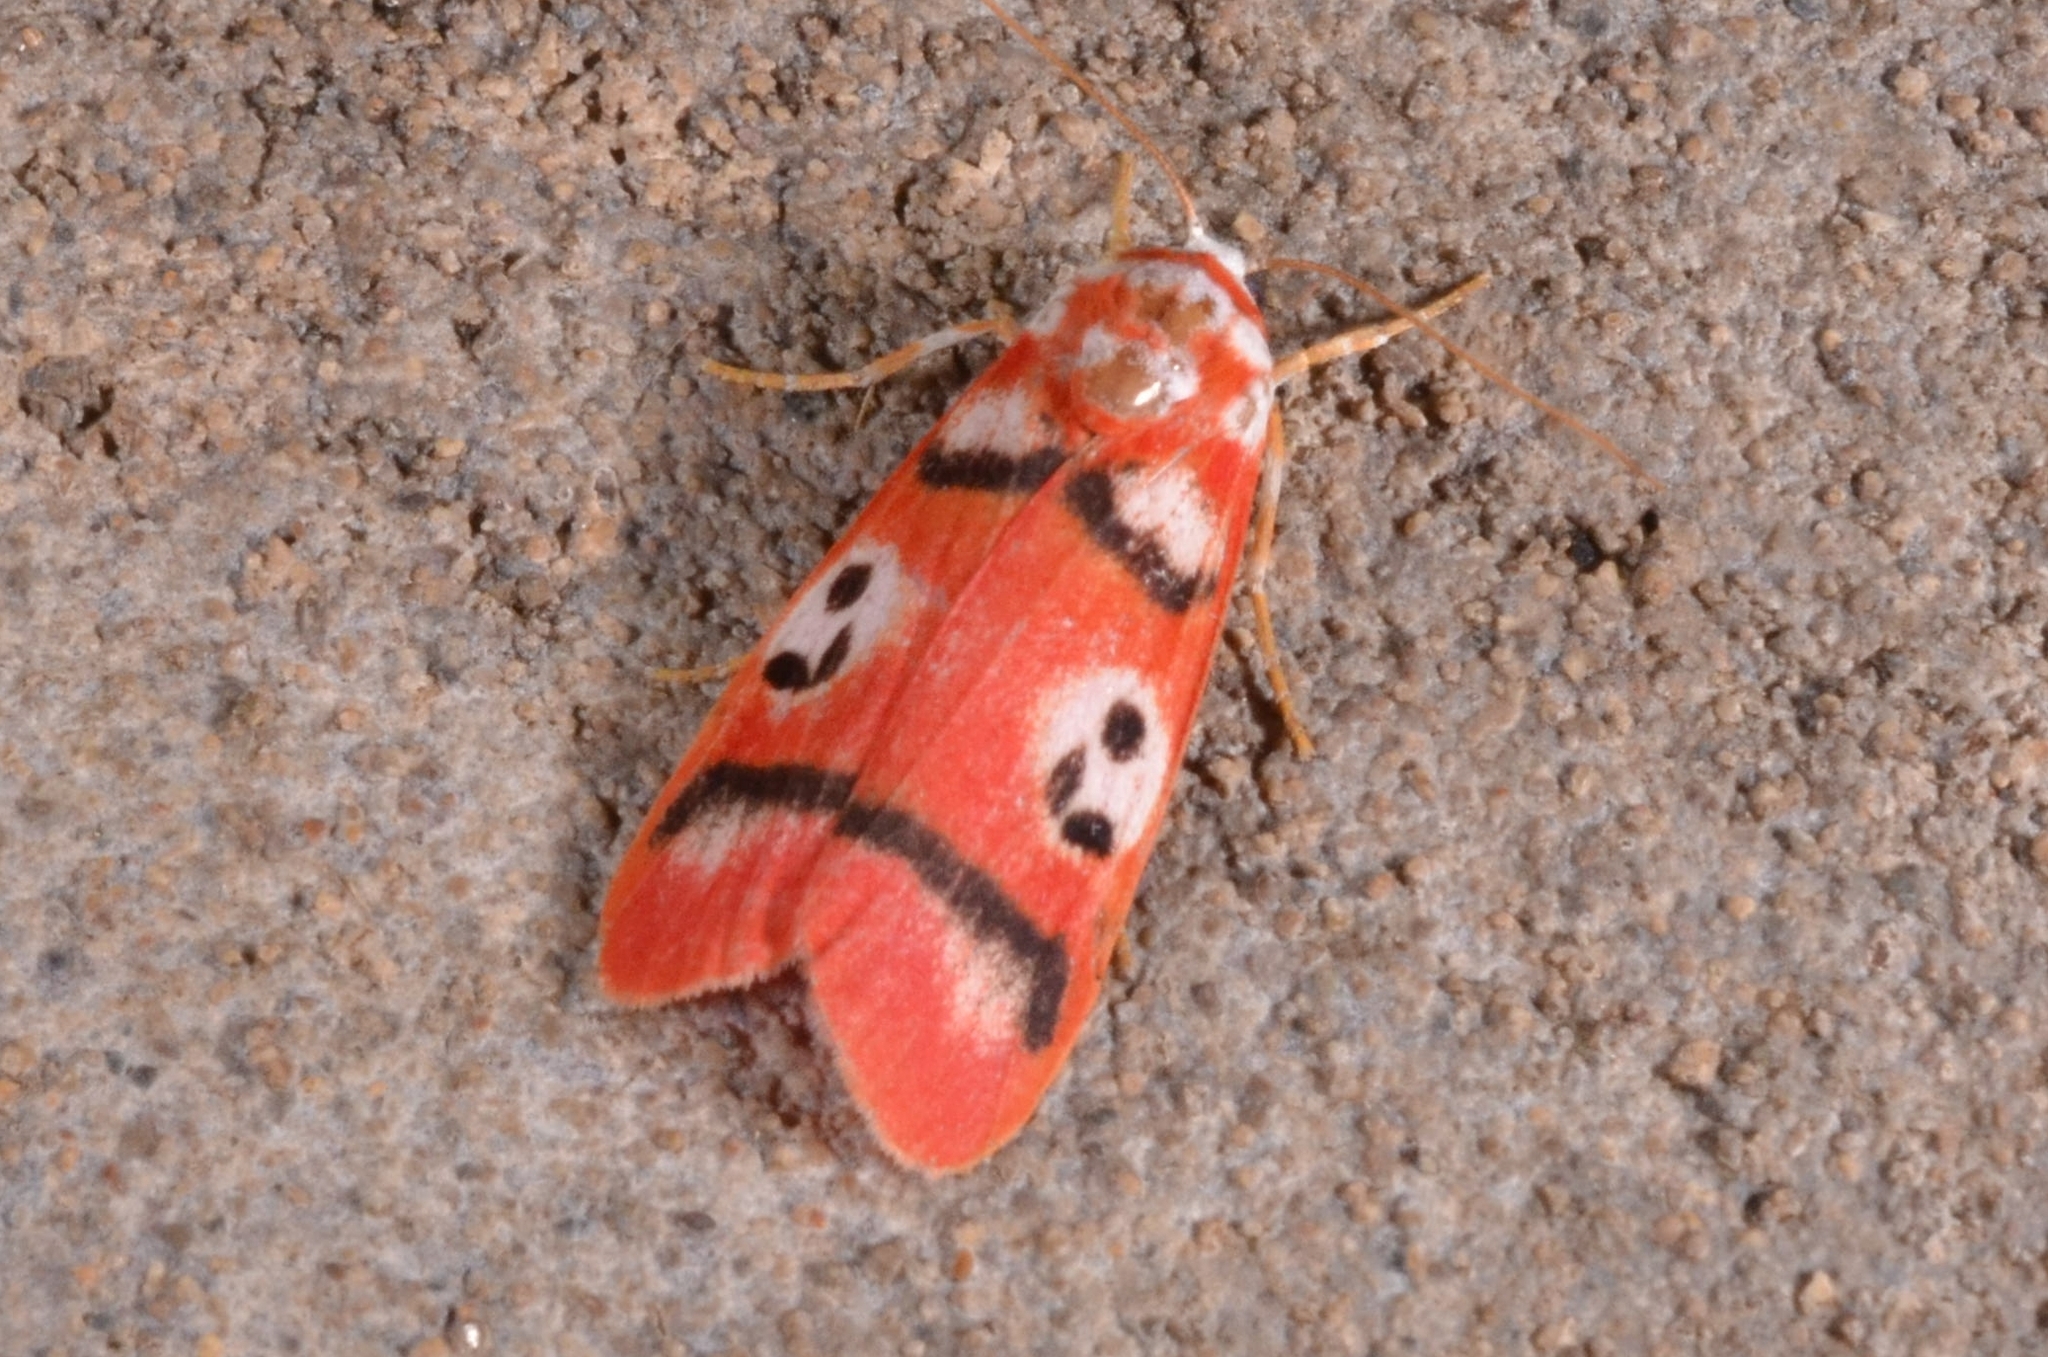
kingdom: Animalia
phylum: Arthropoda
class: Insecta
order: Lepidoptera
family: Erebidae
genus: Cyana
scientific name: Cyana weerawoothi
